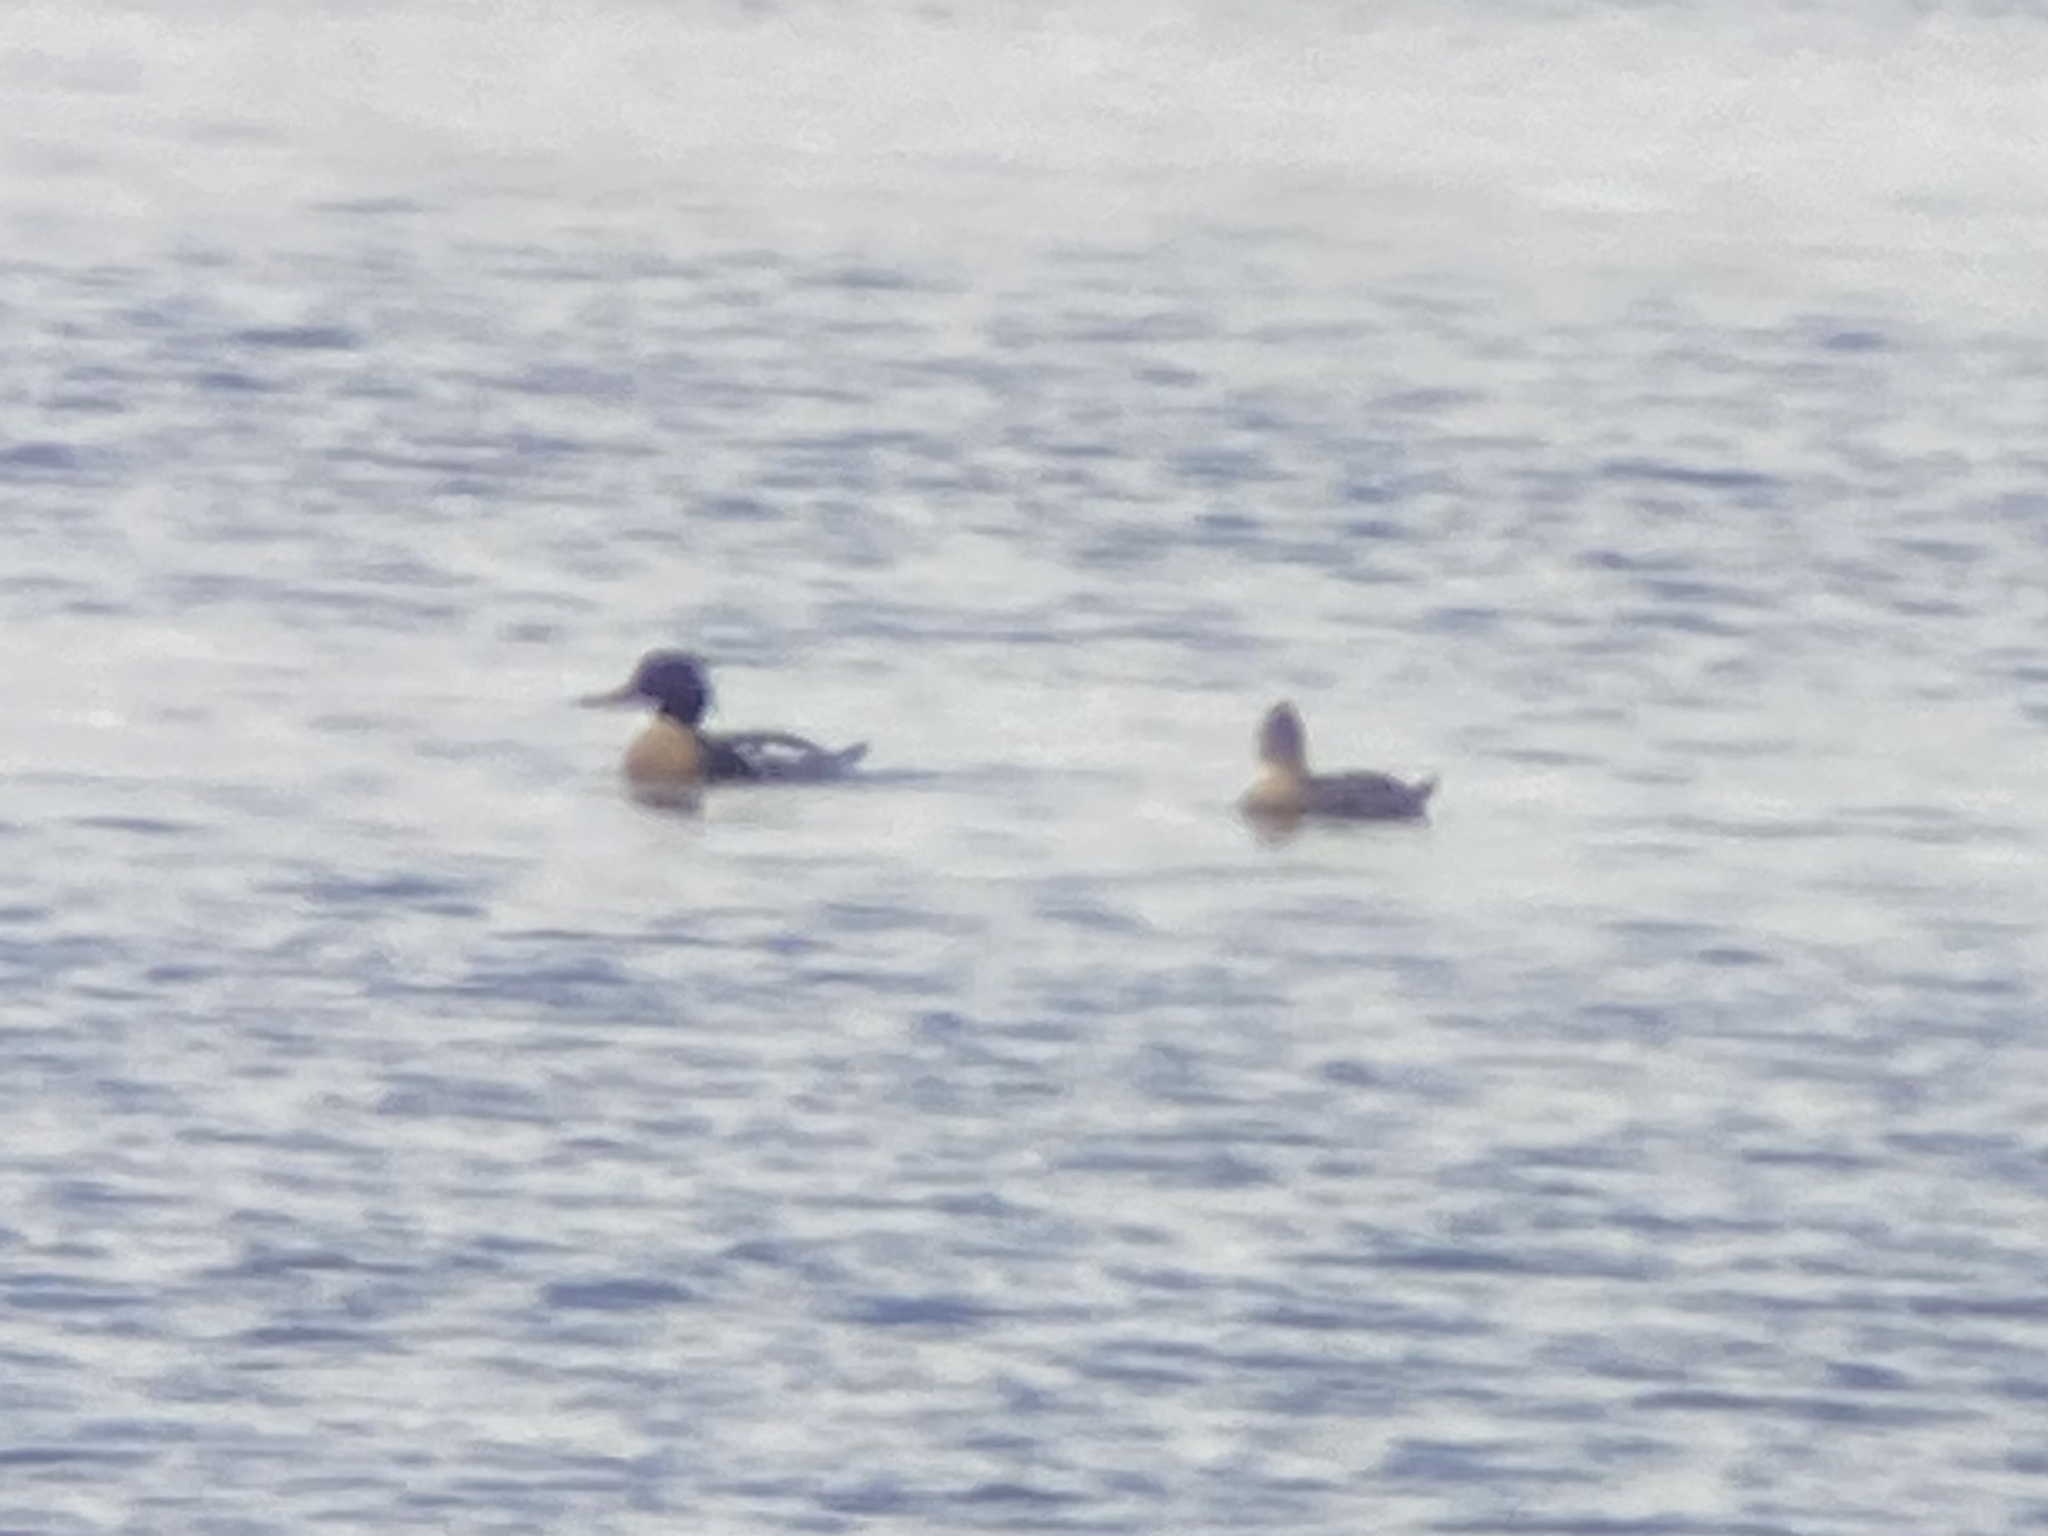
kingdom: Animalia
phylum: Chordata
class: Aves
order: Anseriformes
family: Anatidae
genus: Mergus
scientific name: Mergus serrator
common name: Red-breasted merganser
